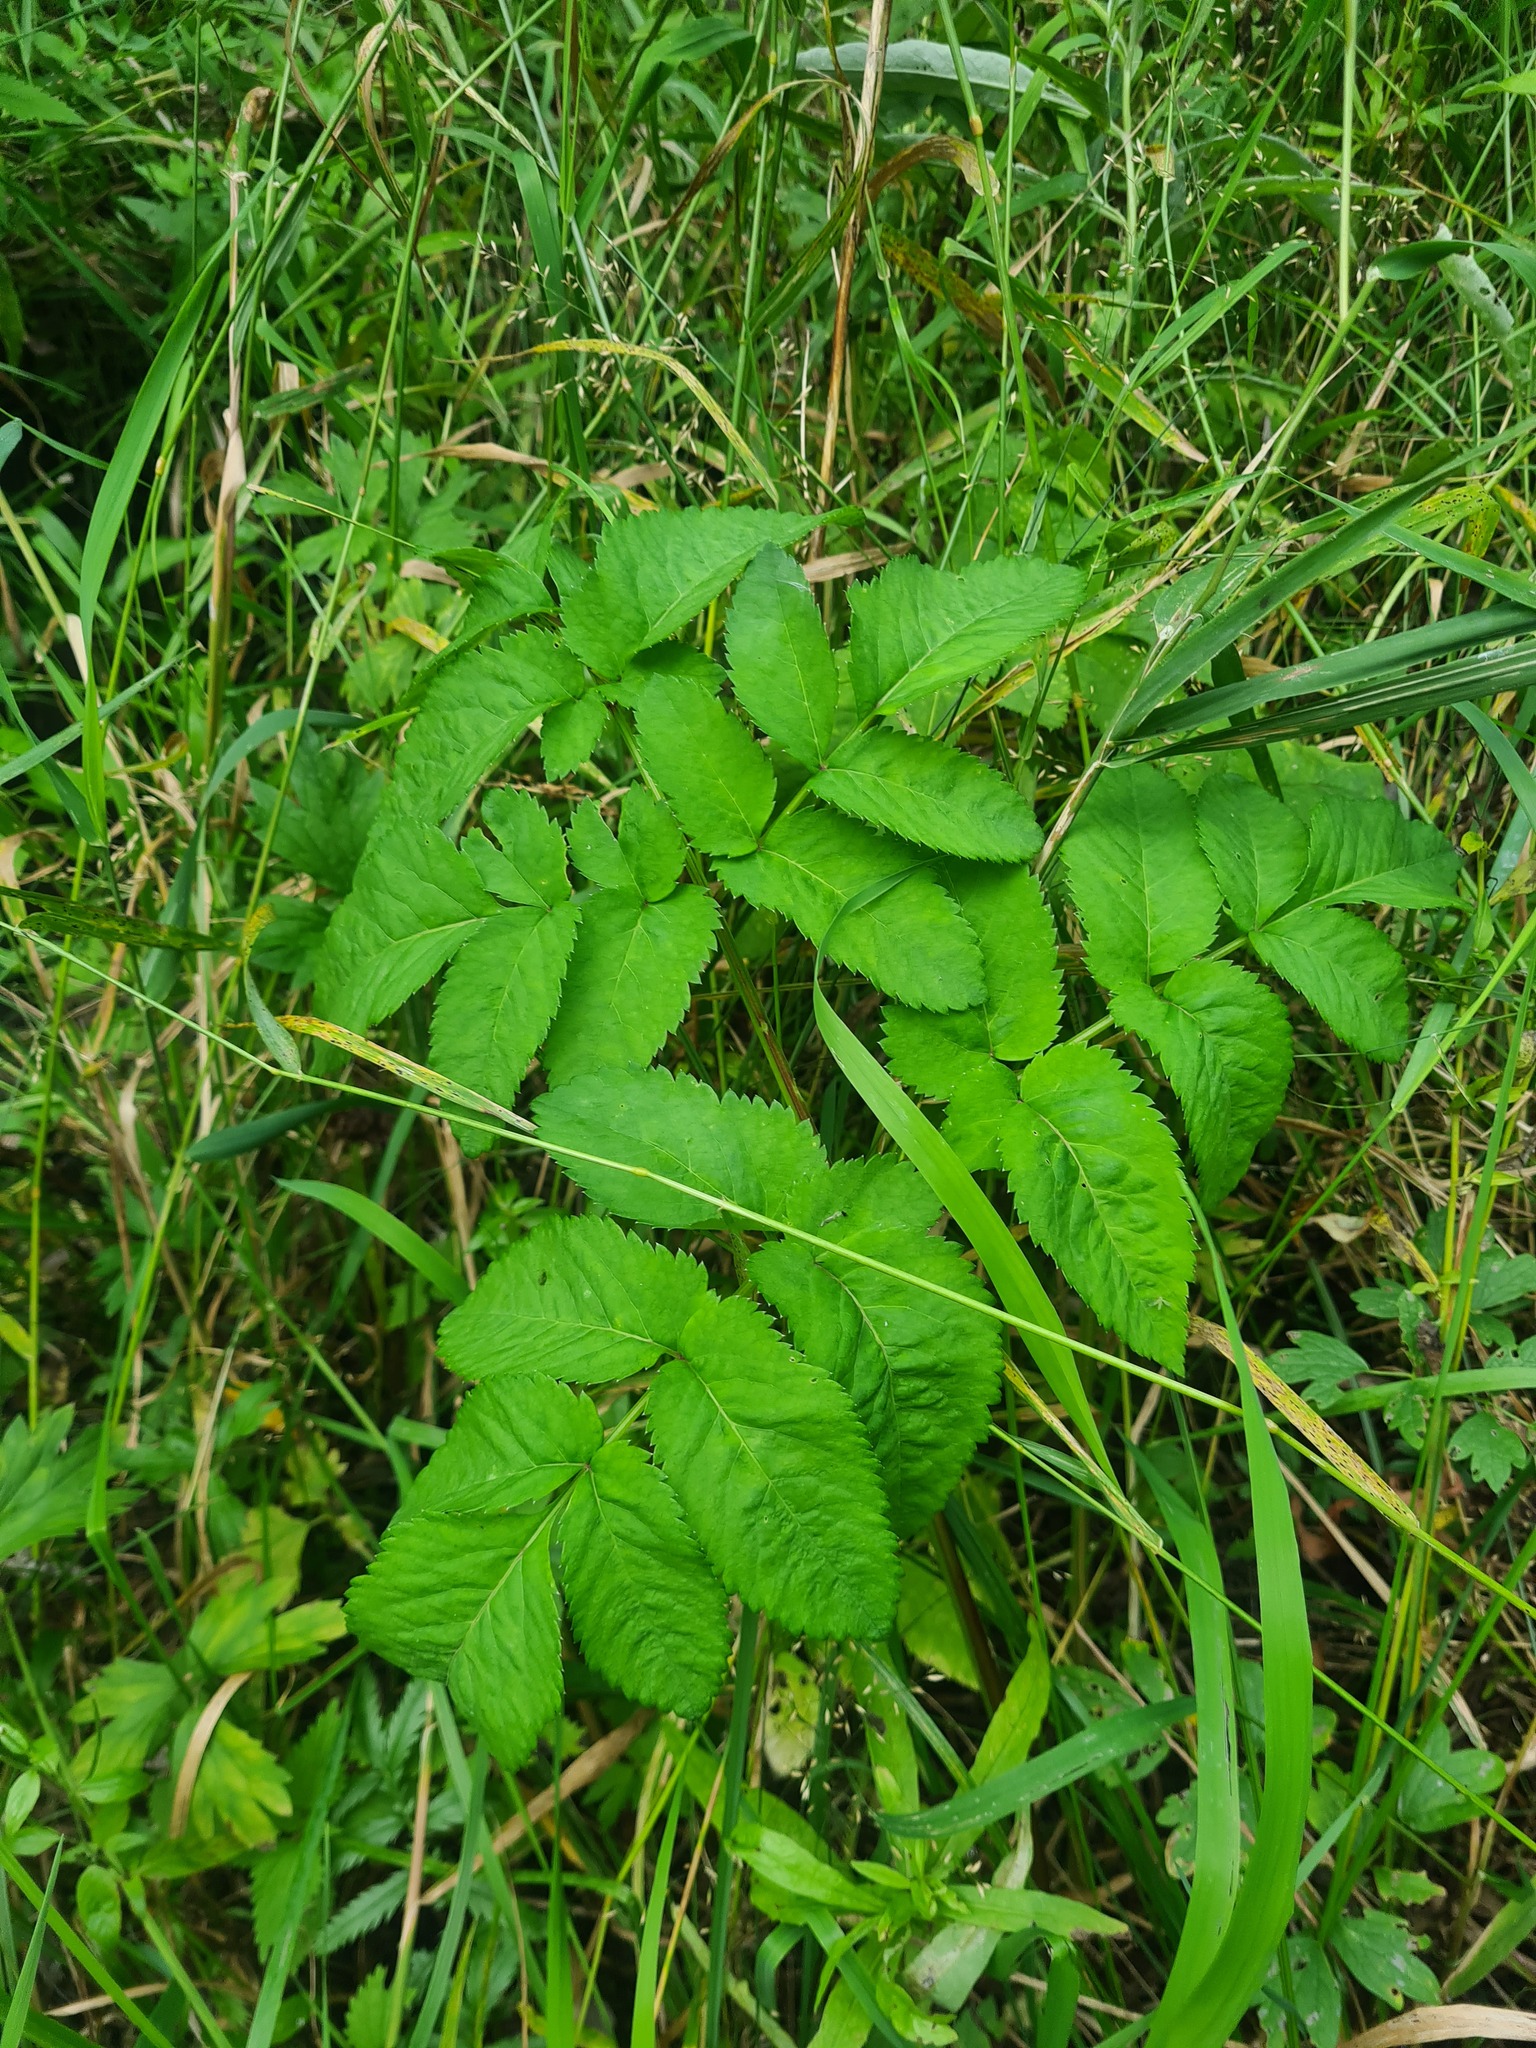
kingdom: Plantae
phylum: Tracheophyta
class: Magnoliopsida
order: Apiales
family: Apiaceae
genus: Angelica
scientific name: Angelica sylvestris
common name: Wild angelica
